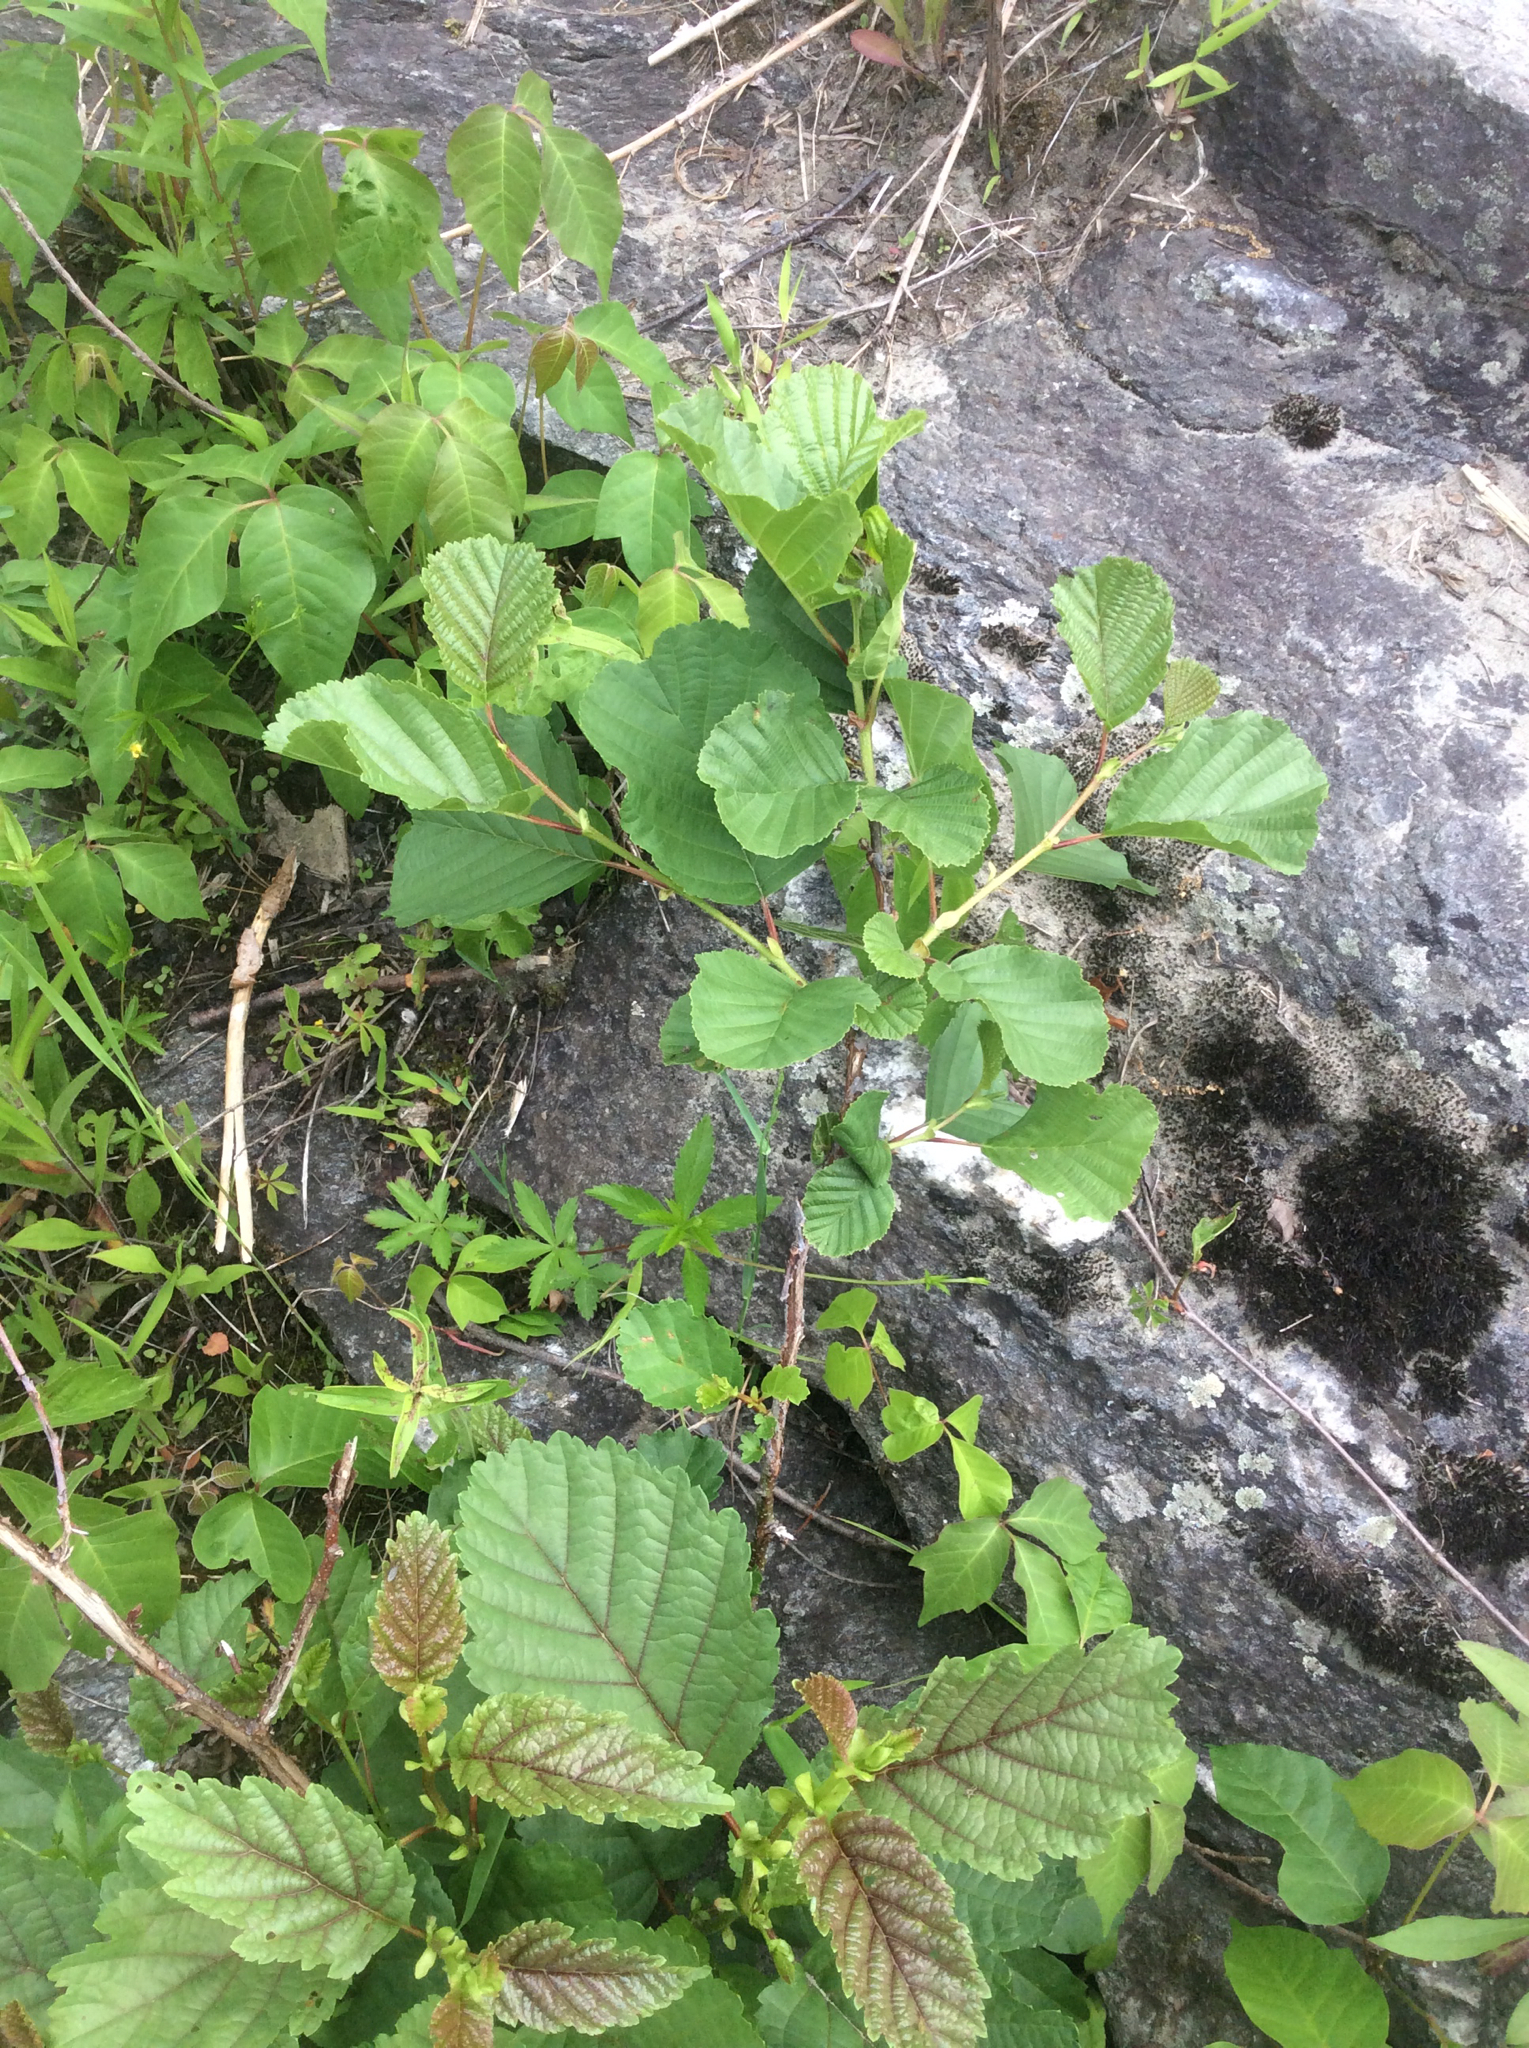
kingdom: Plantae
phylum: Tracheophyta
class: Magnoliopsida
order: Fagales
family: Betulaceae
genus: Alnus
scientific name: Alnus glutinosa
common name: Black alder
